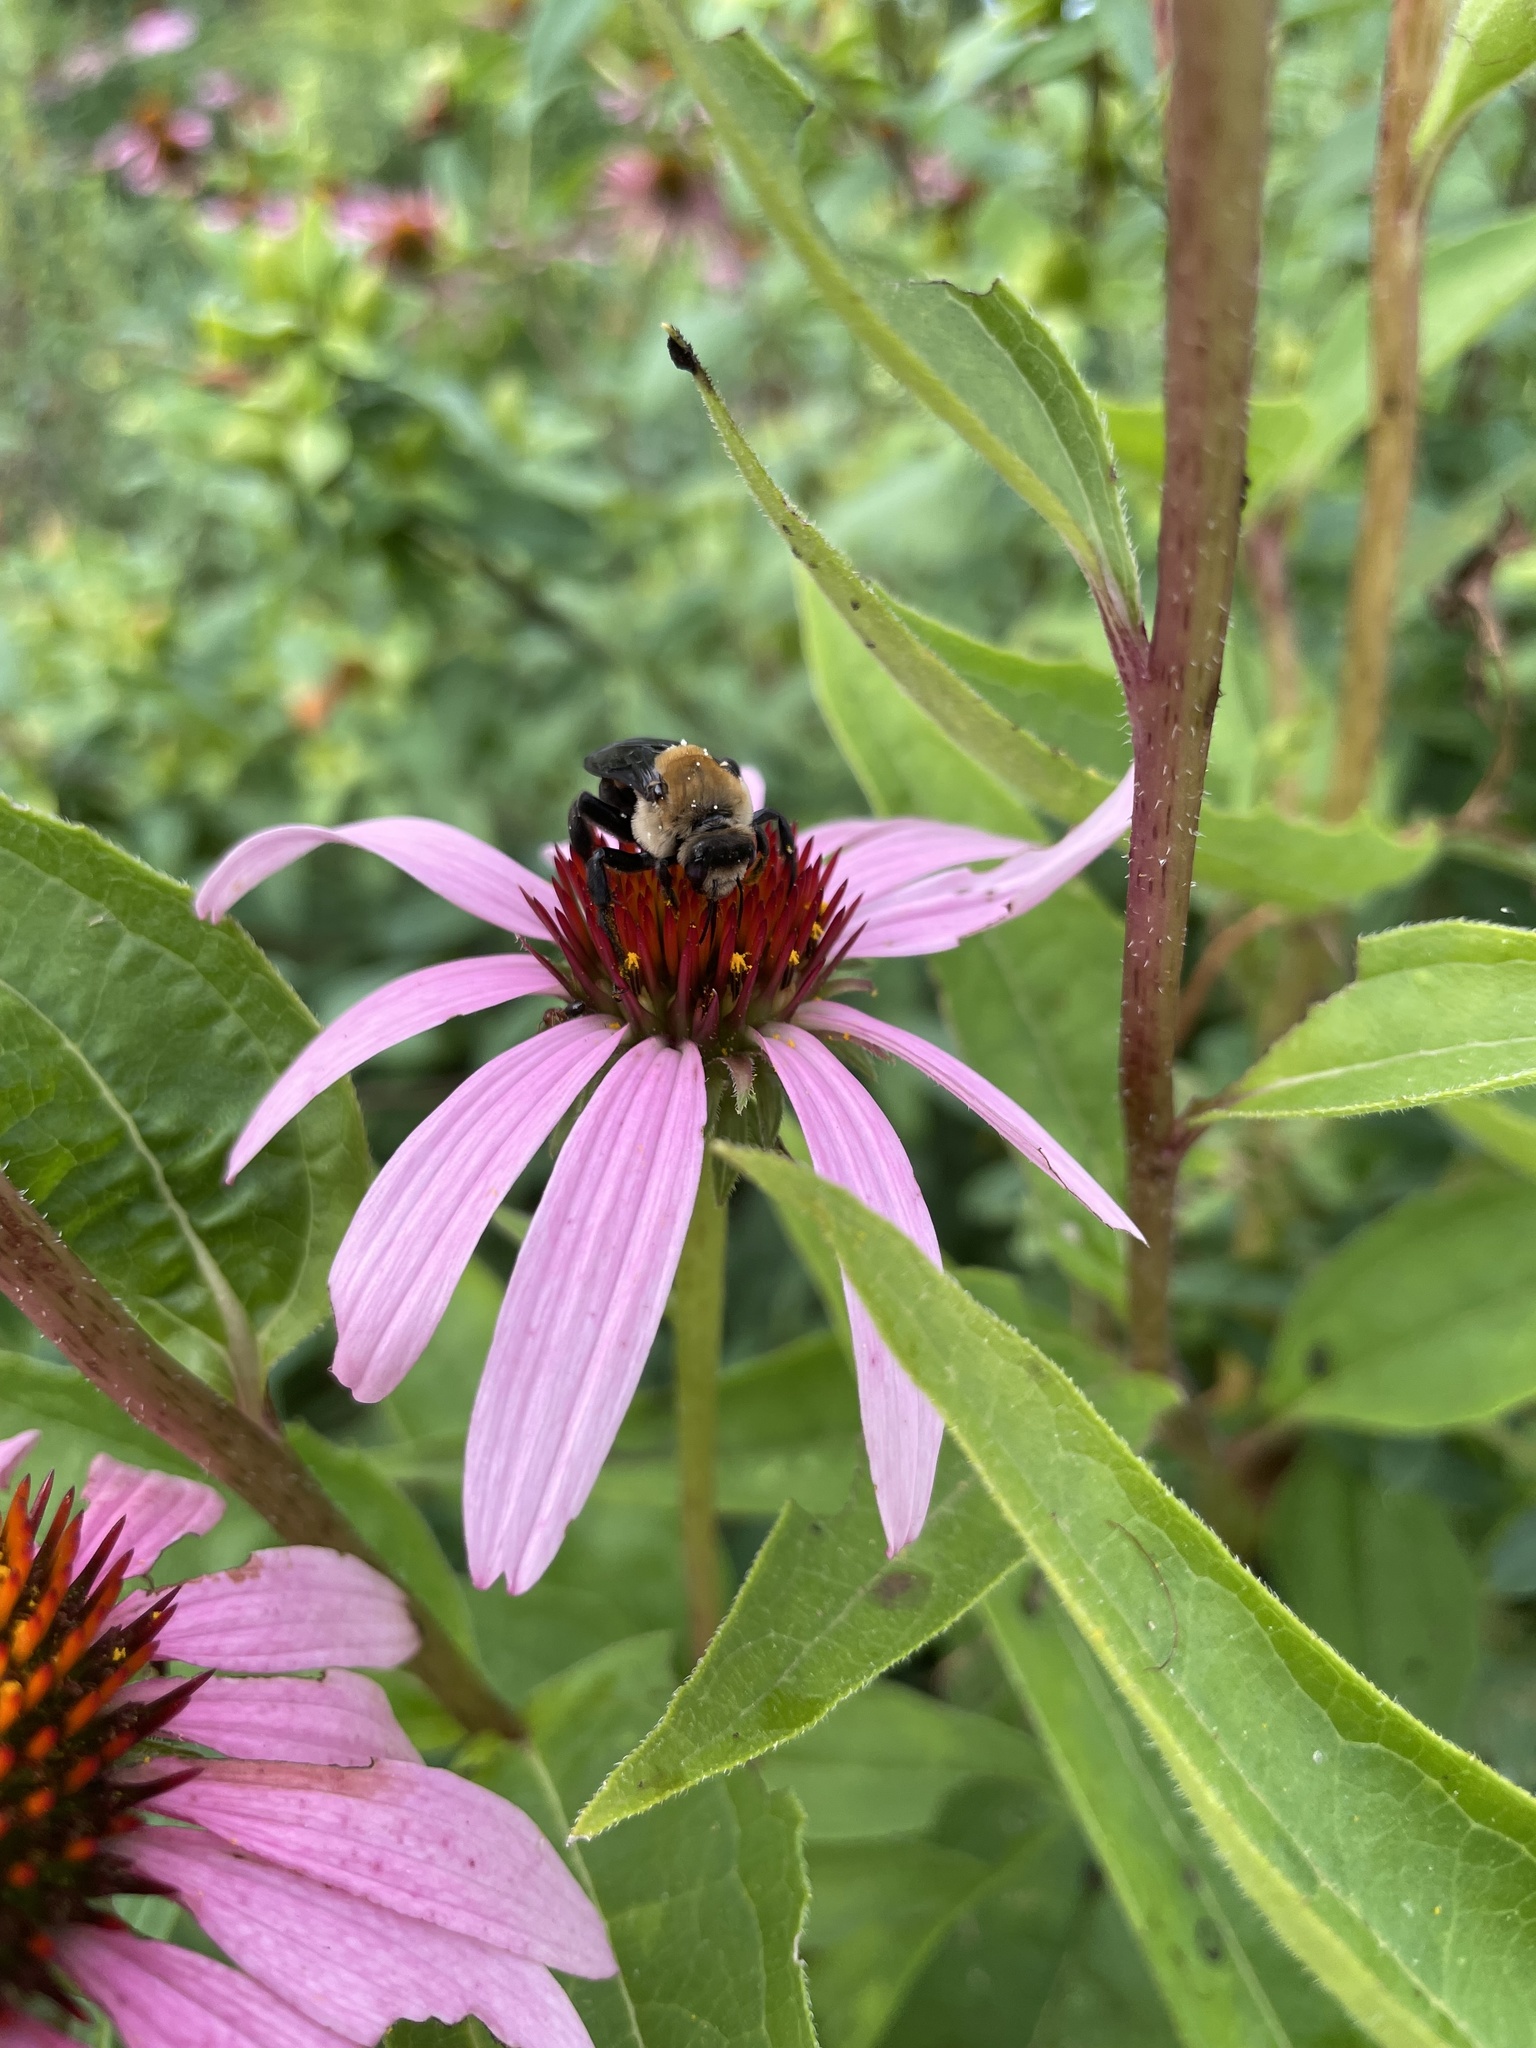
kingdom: Animalia
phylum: Arthropoda
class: Insecta
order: Hymenoptera
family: Apidae
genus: Ptilothrix
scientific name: Ptilothrix bombiformis
